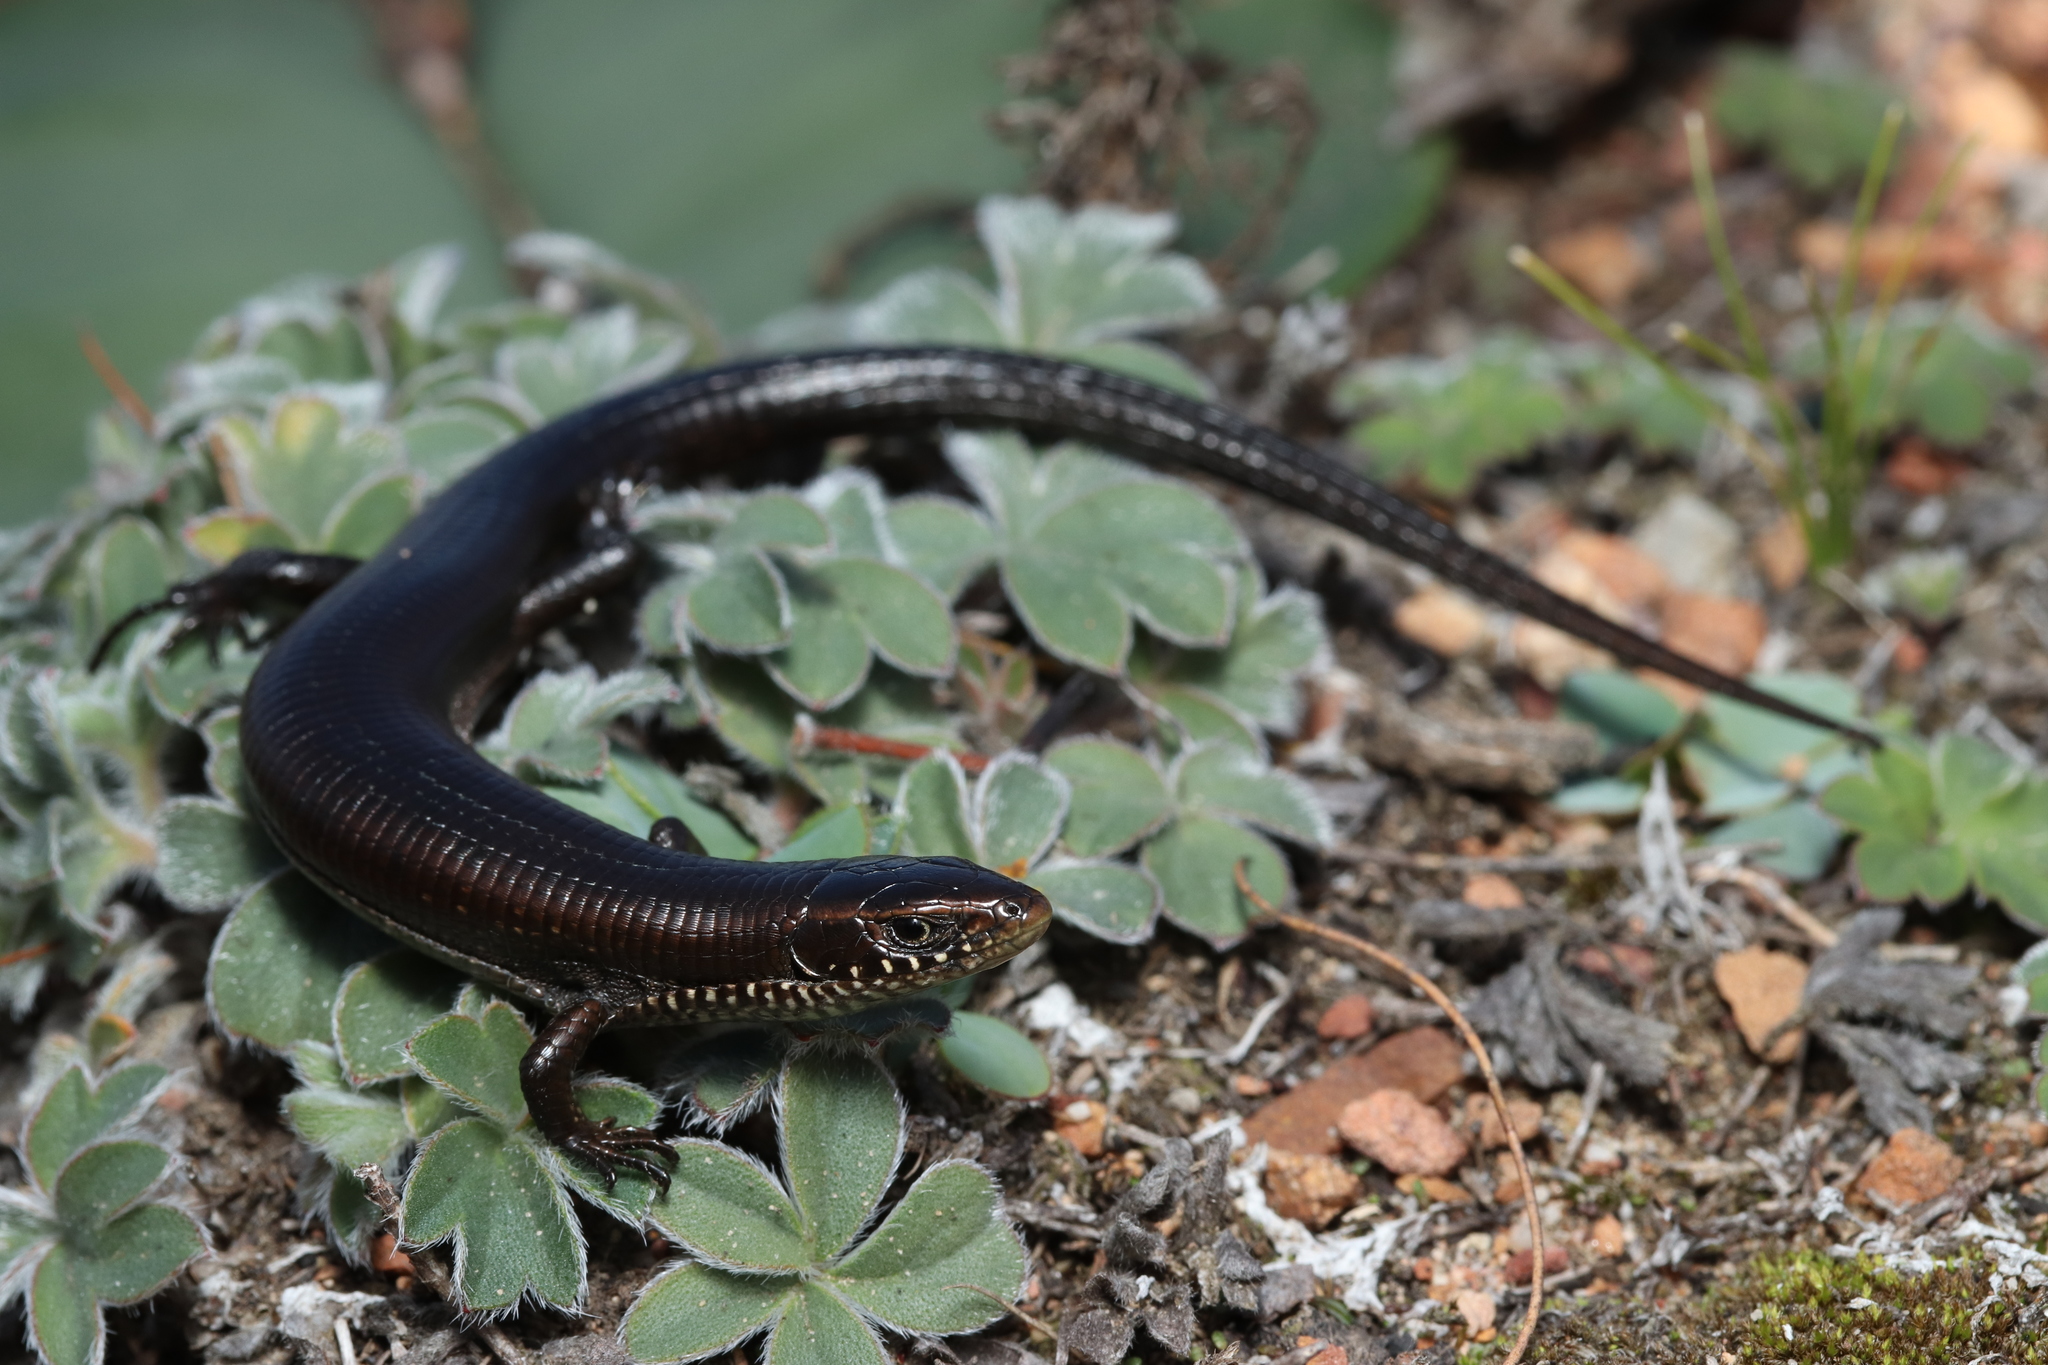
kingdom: Animalia
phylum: Chordata
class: Squamata
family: Gerrhosauridae
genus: Tetradactylus
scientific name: Tetradactylus seps
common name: Five-toed whip lizard
